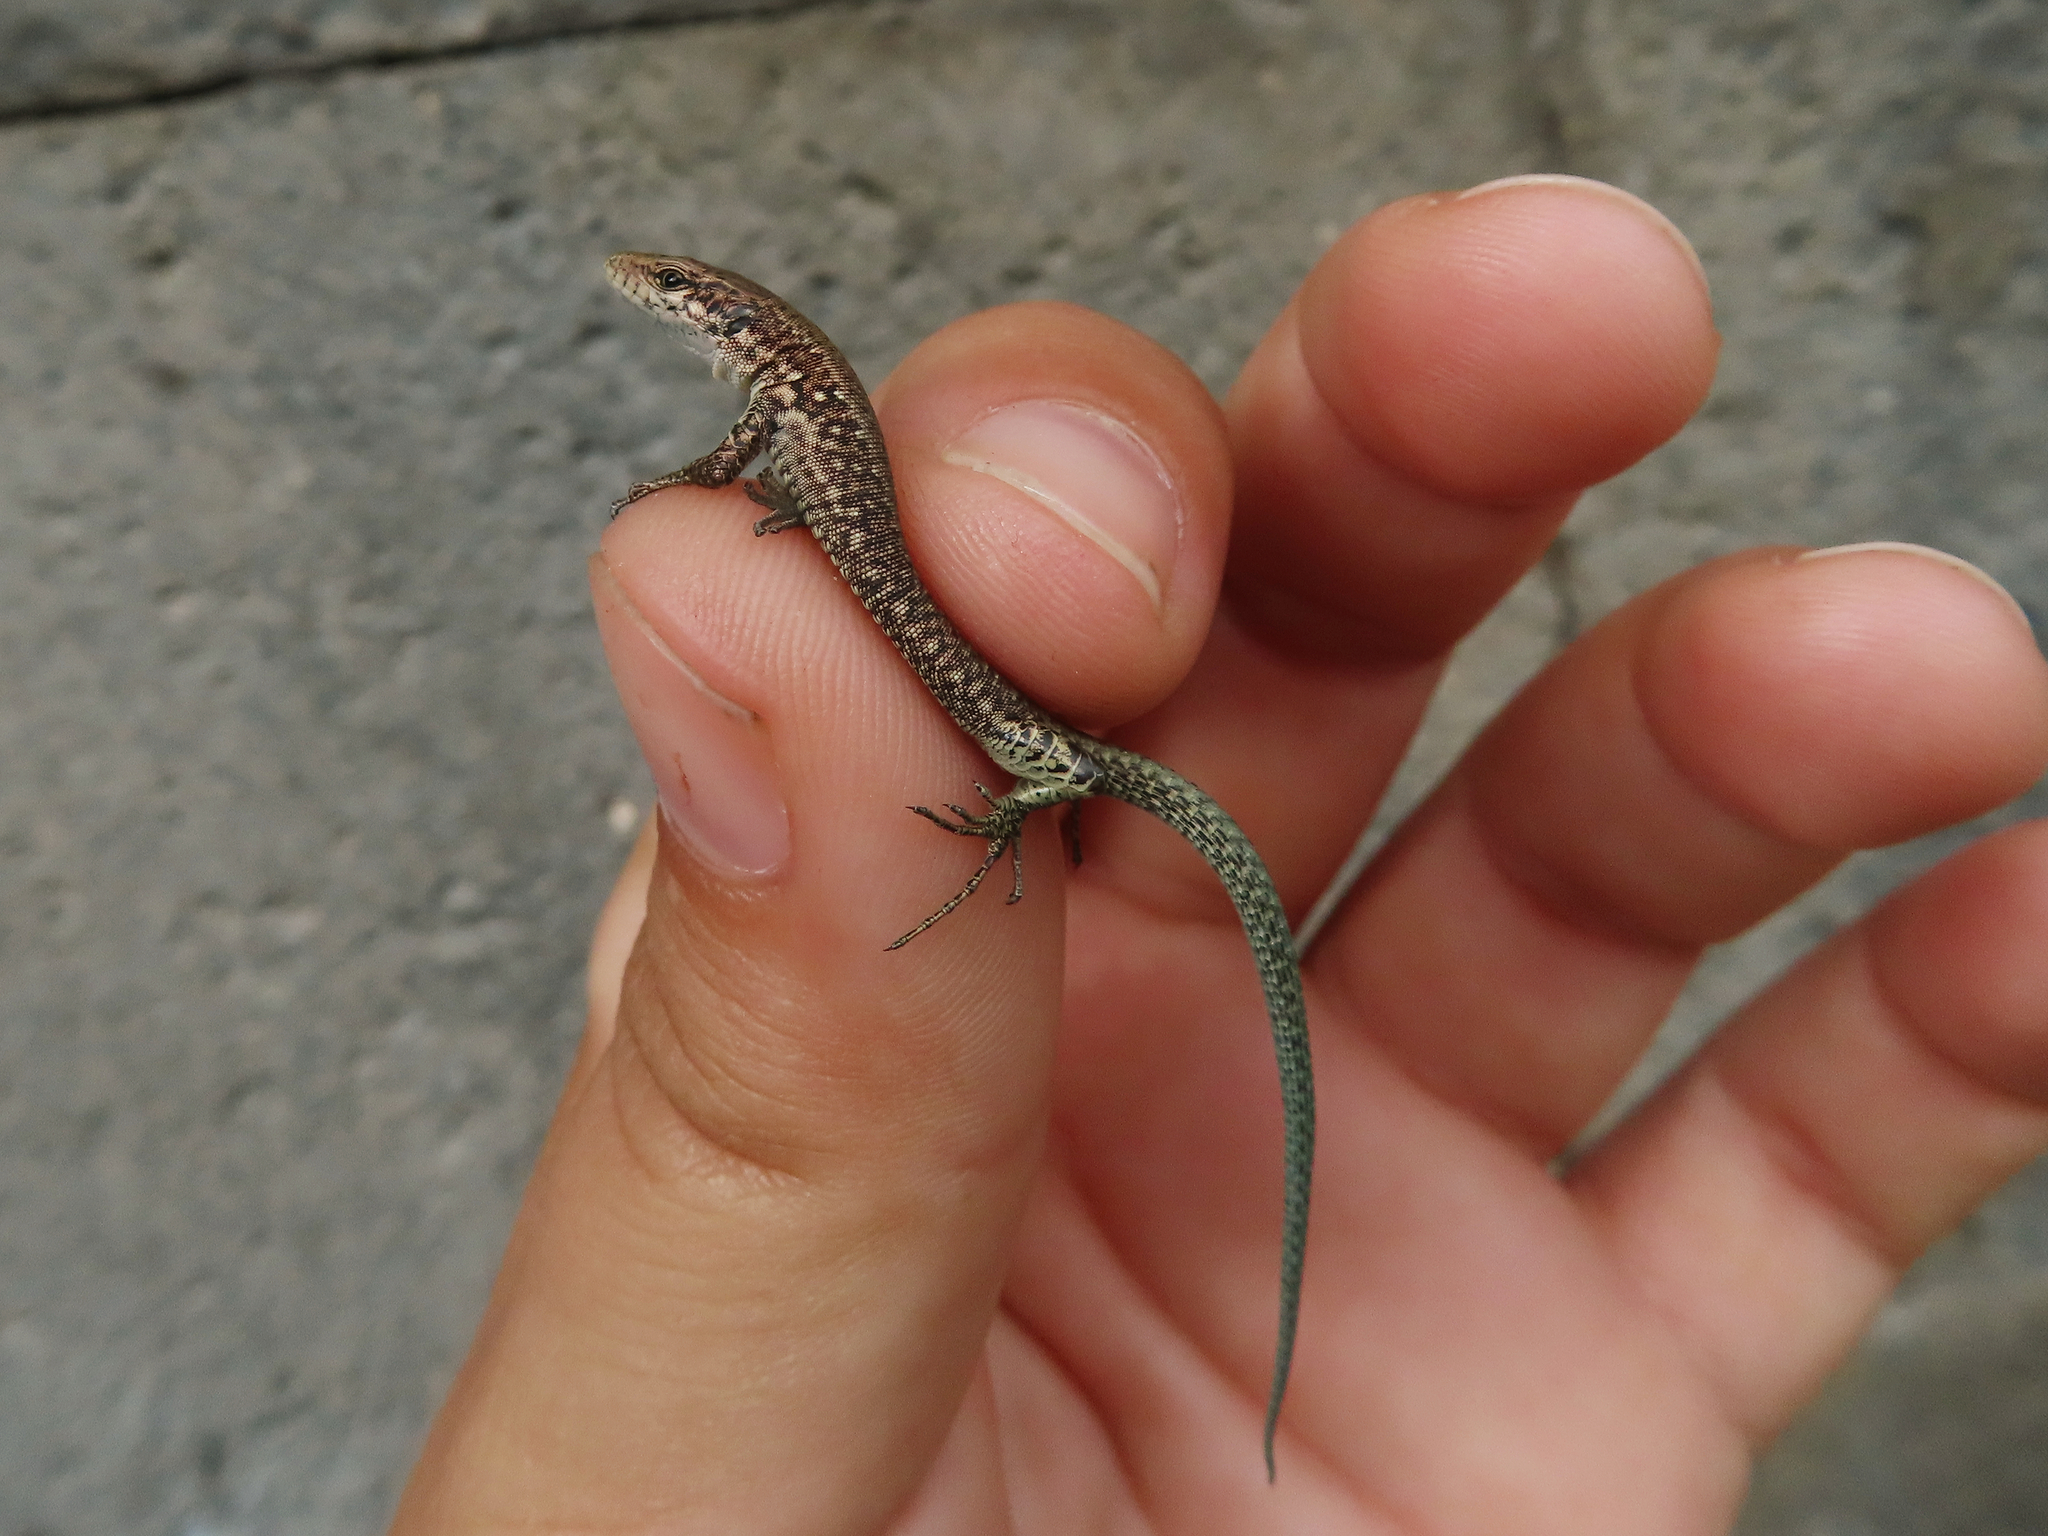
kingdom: Animalia
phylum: Chordata
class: Squamata
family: Lacertidae
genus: Darevskia
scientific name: Darevskia armeniaca
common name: Armenian lizard
